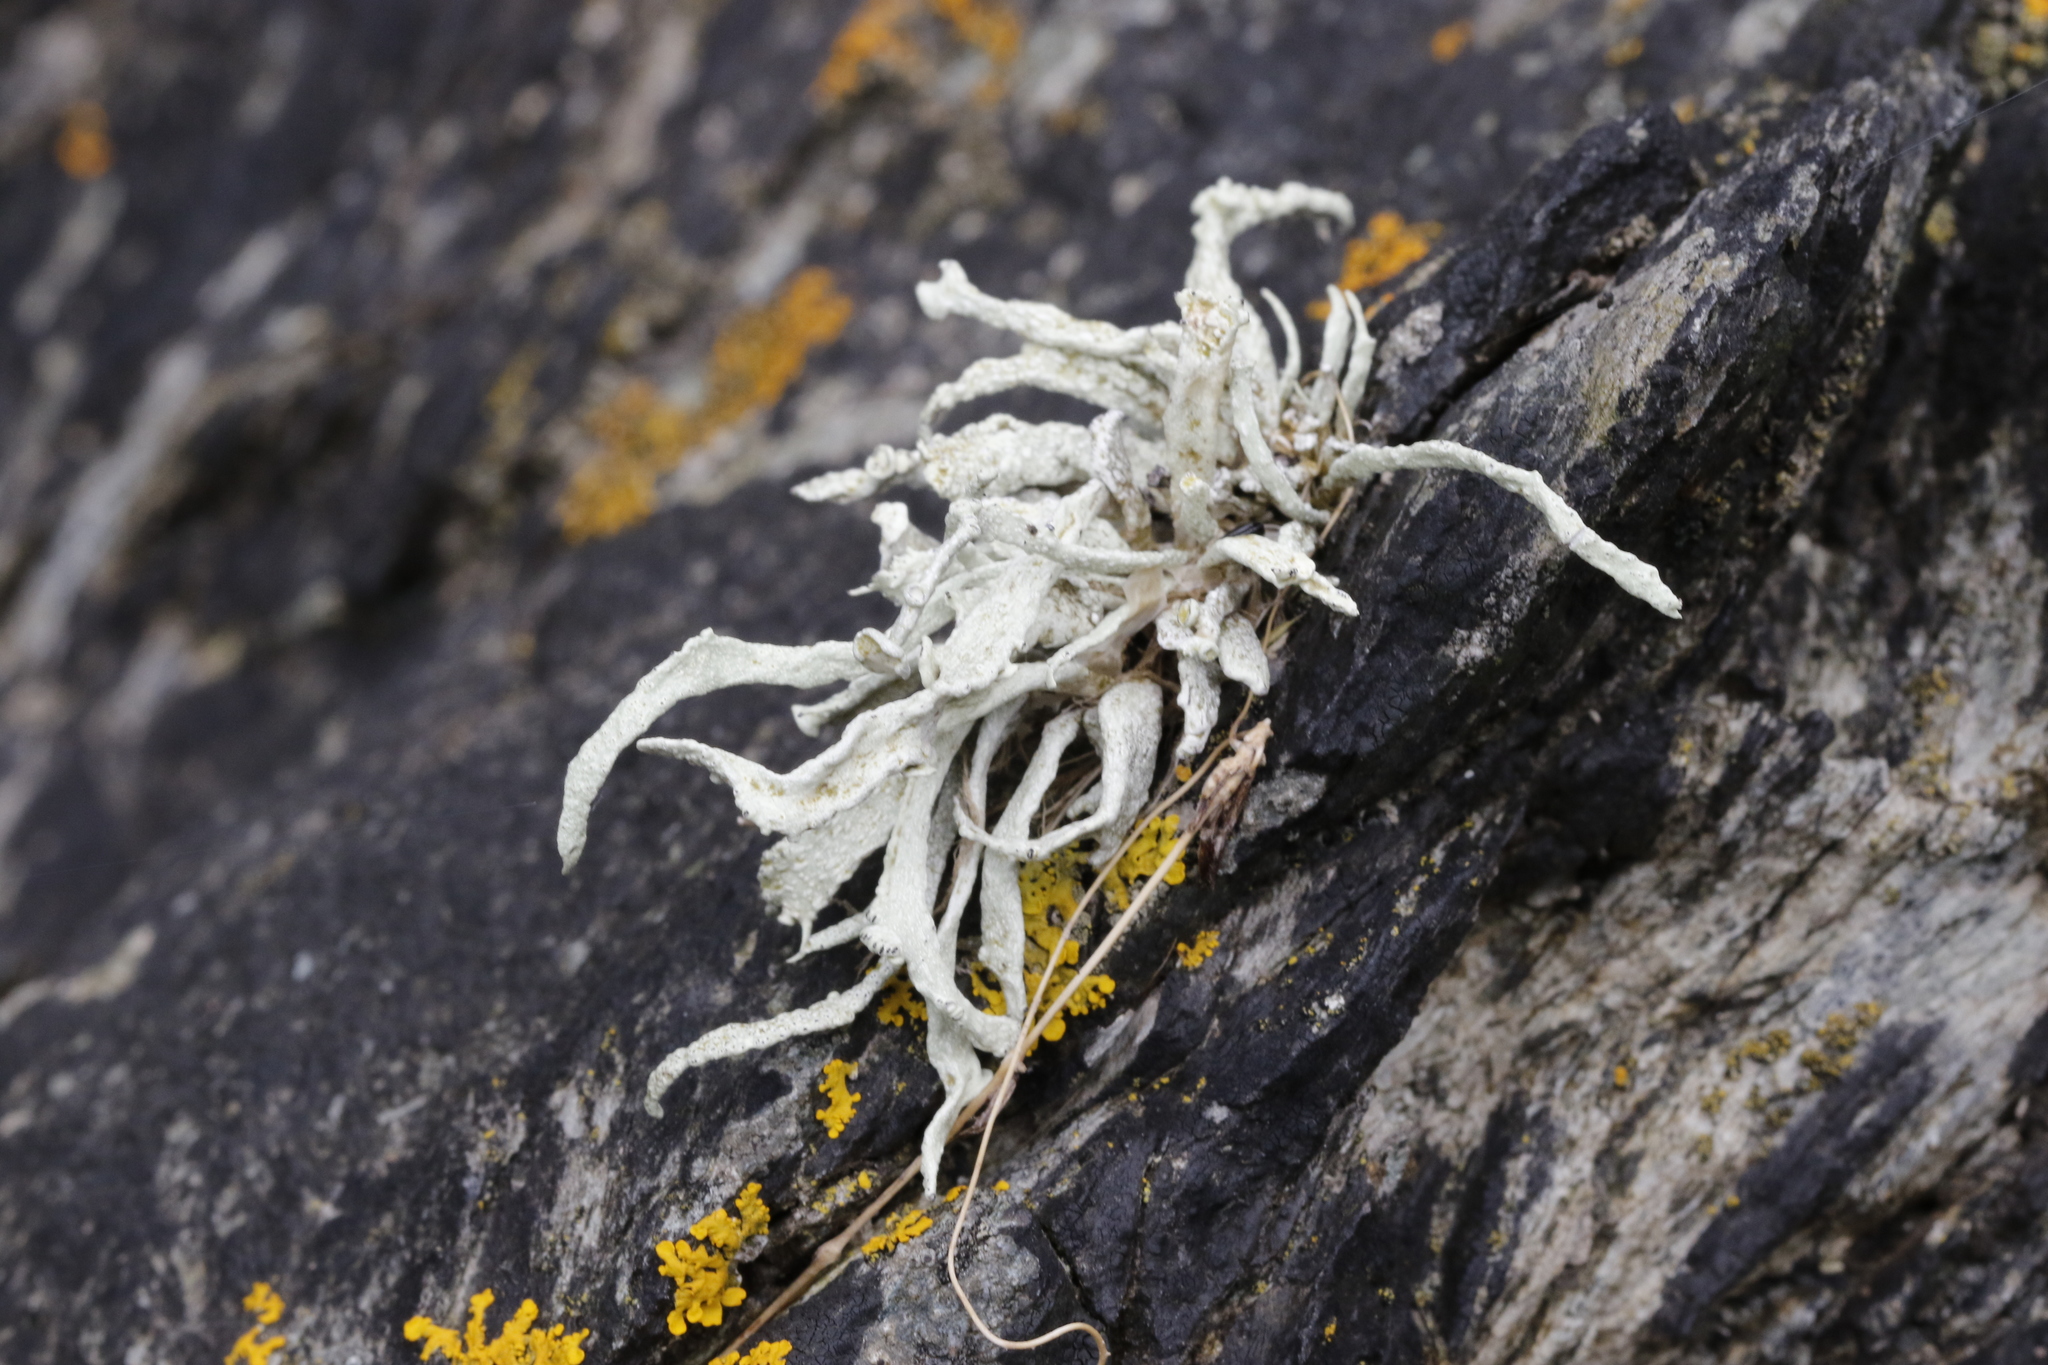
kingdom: Fungi
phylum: Ascomycota
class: Lecanoromycetes
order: Lecanorales
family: Ramalinaceae
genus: Ramalina
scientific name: Ramalina siliquosa
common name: Sea ivory
